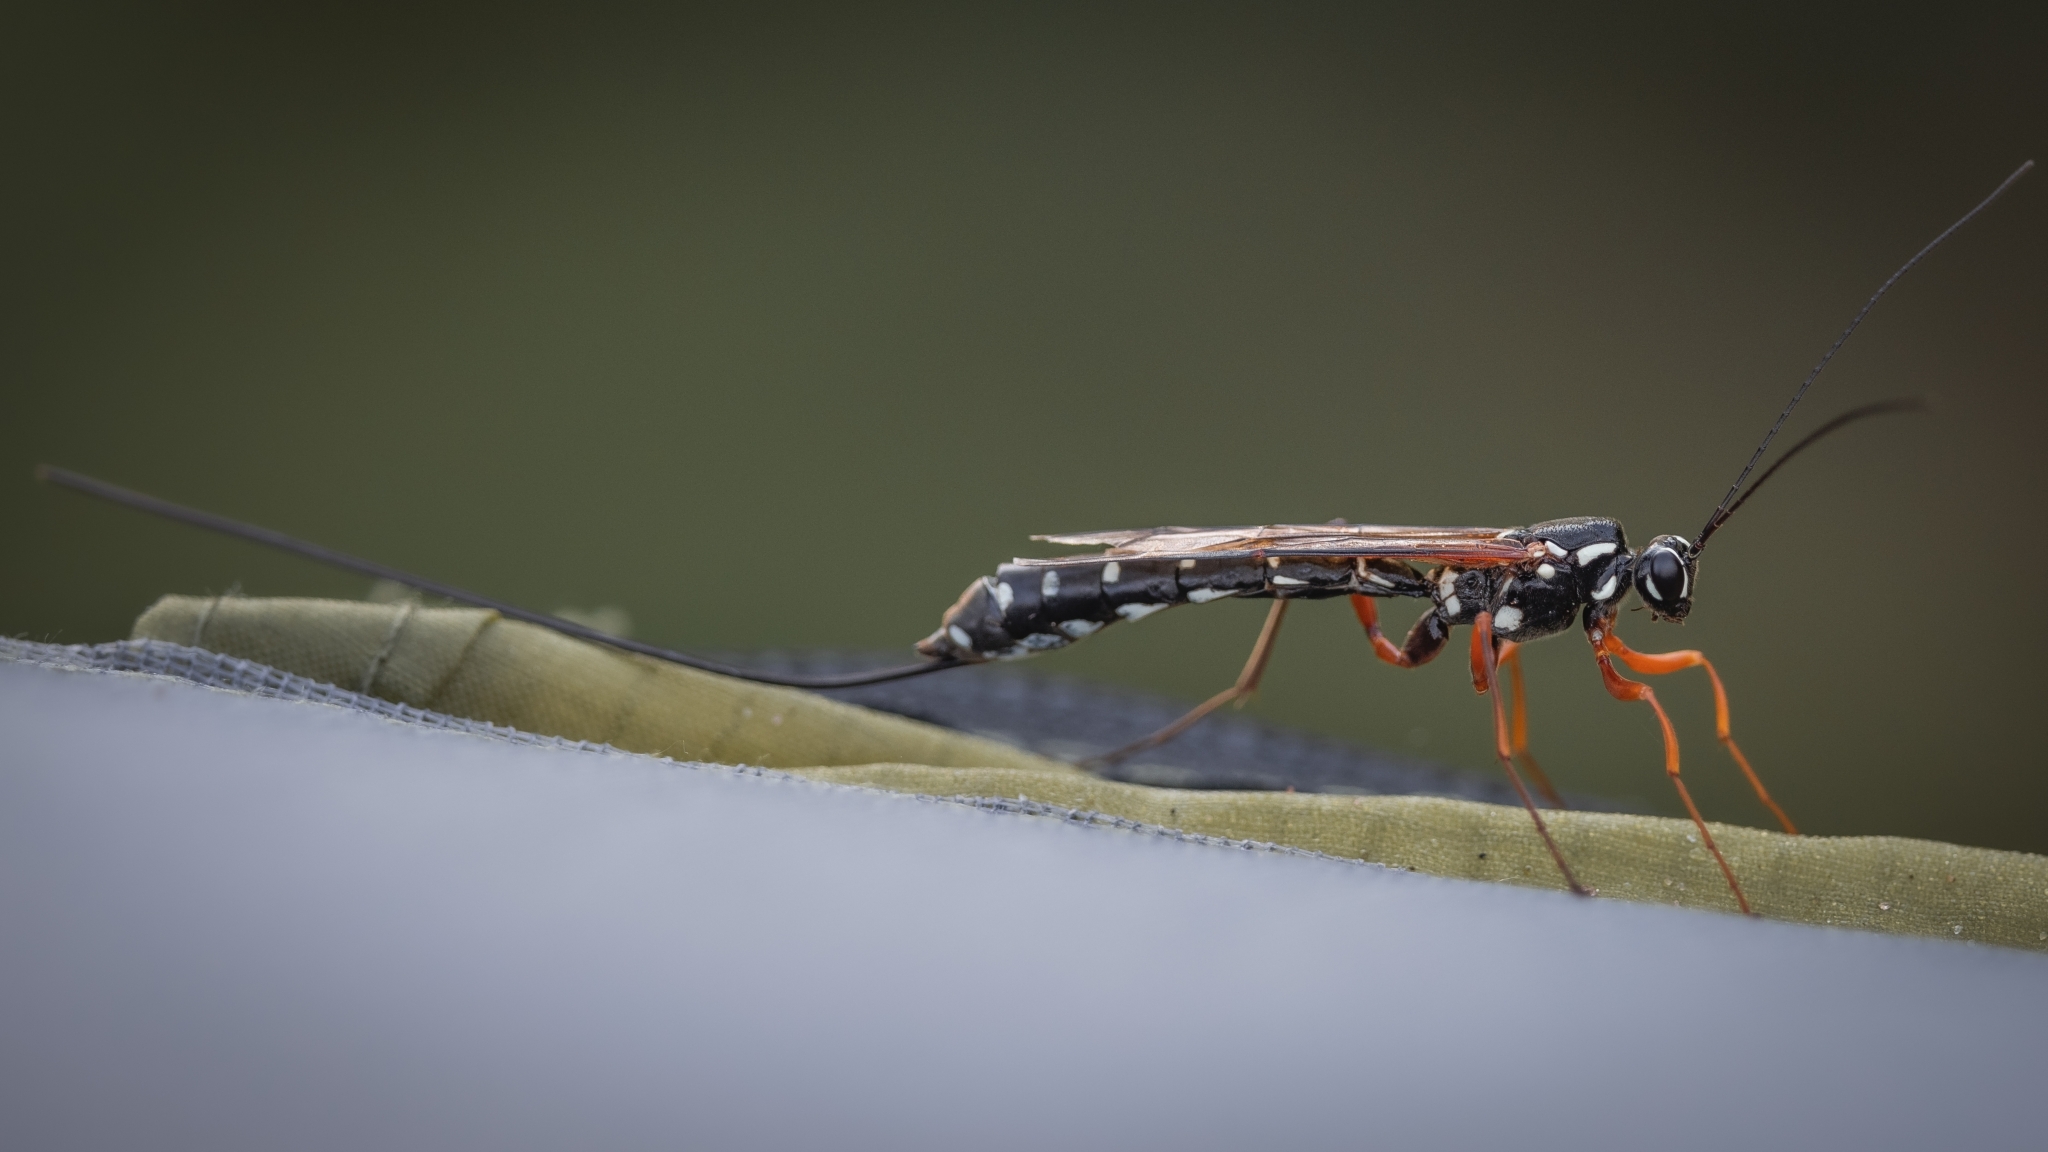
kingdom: Animalia
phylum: Arthropoda
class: Insecta
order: Hymenoptera
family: Ichneumonidae
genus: Rhyssa
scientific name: Rhyssa persuasoria
